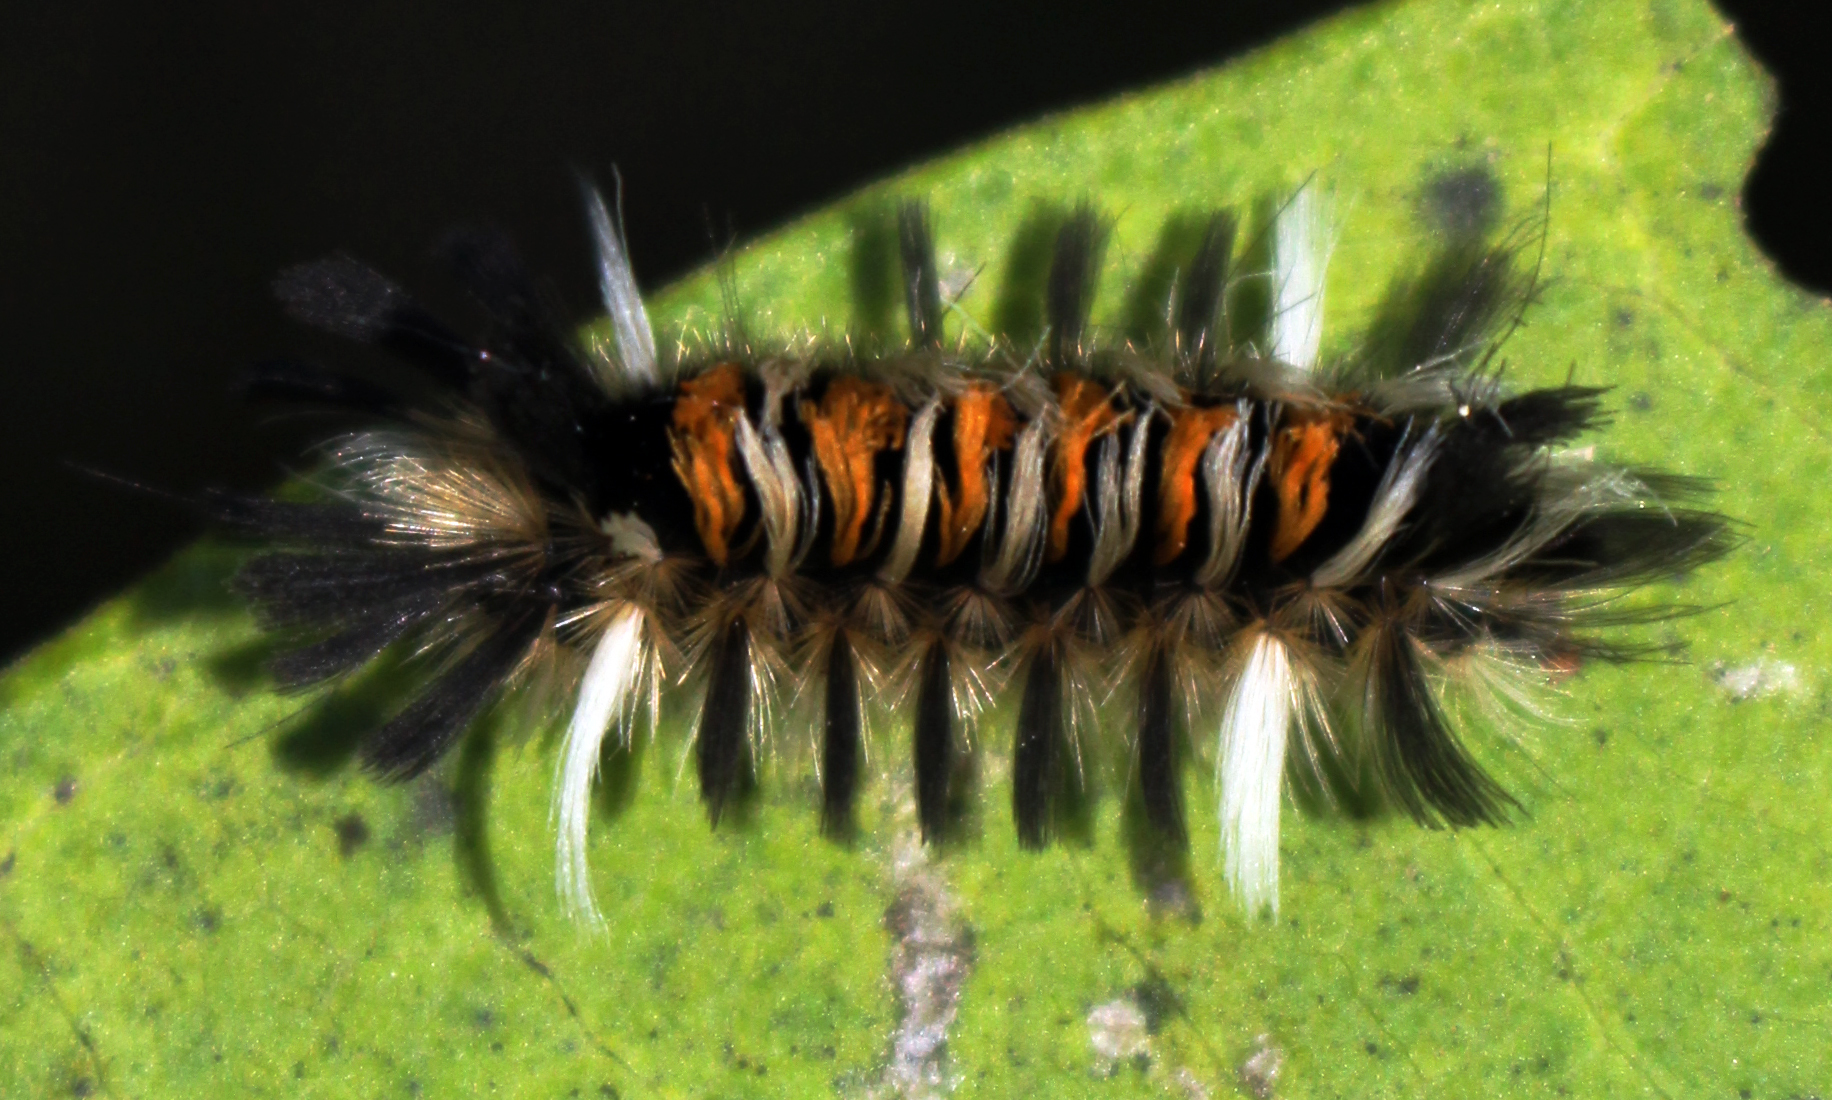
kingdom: Animalia
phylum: Arthropoda
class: Insecta
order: Lepidoptera
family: Erebidae
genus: Euchaetes
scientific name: Euchaetes egle
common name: Milkweed tussock moth
